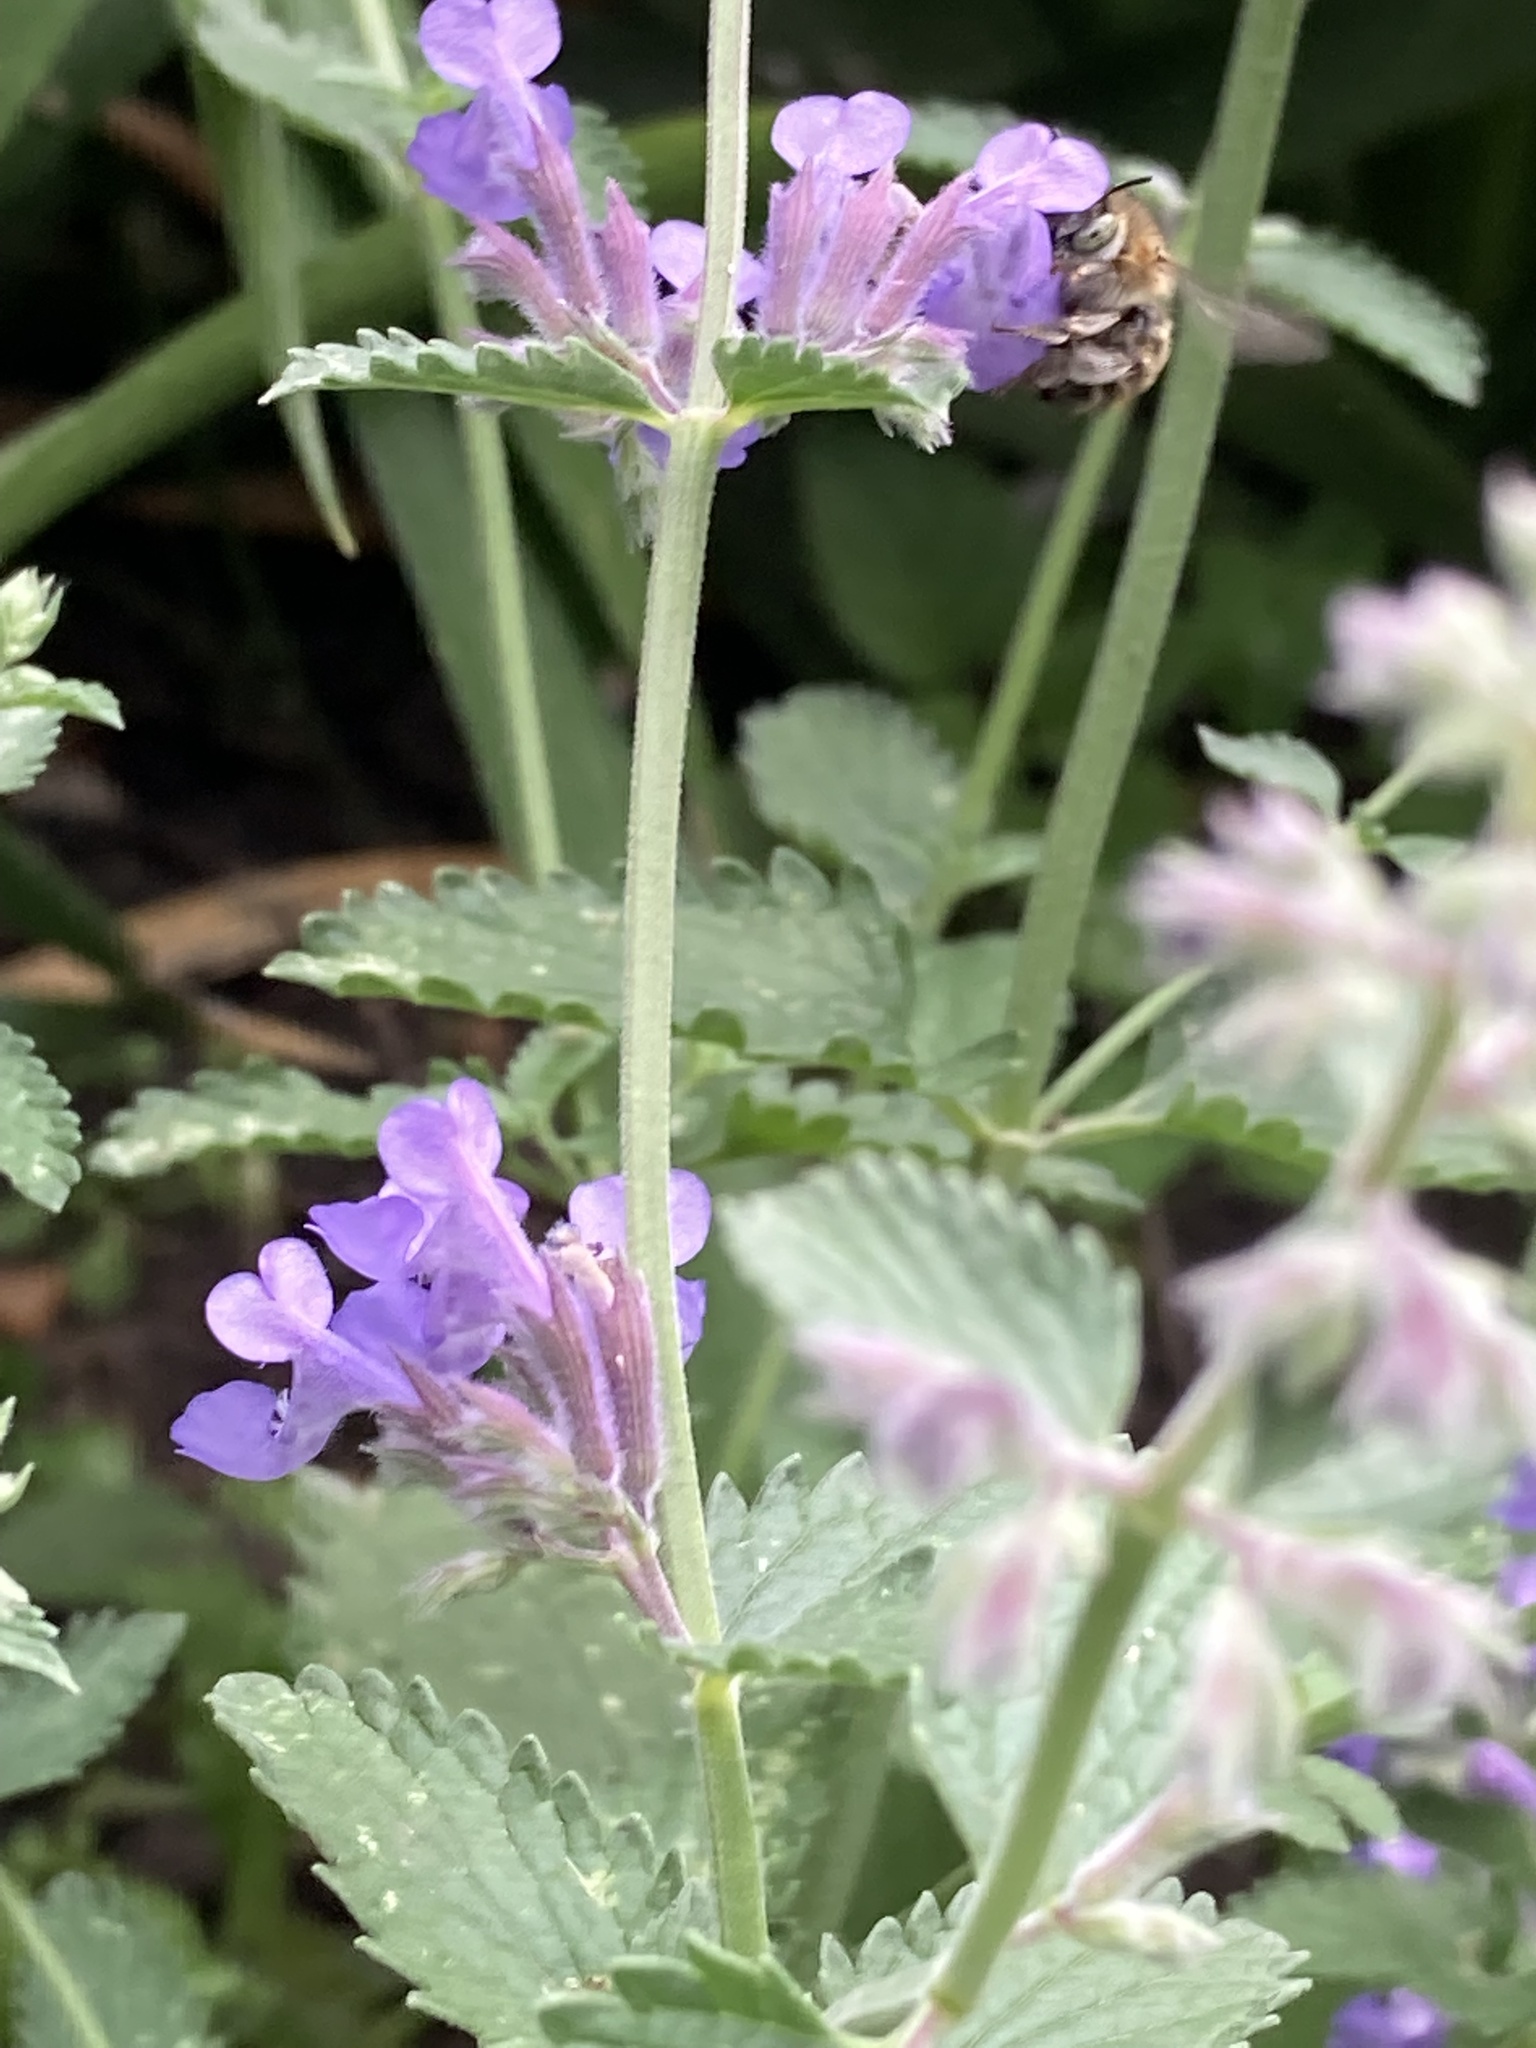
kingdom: Animalia
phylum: Arthropoda
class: Insecta
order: Hymenoptera
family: Apidae
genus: Anthophora
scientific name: Anthophora quadrimaculata
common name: Four-banded flower bee
